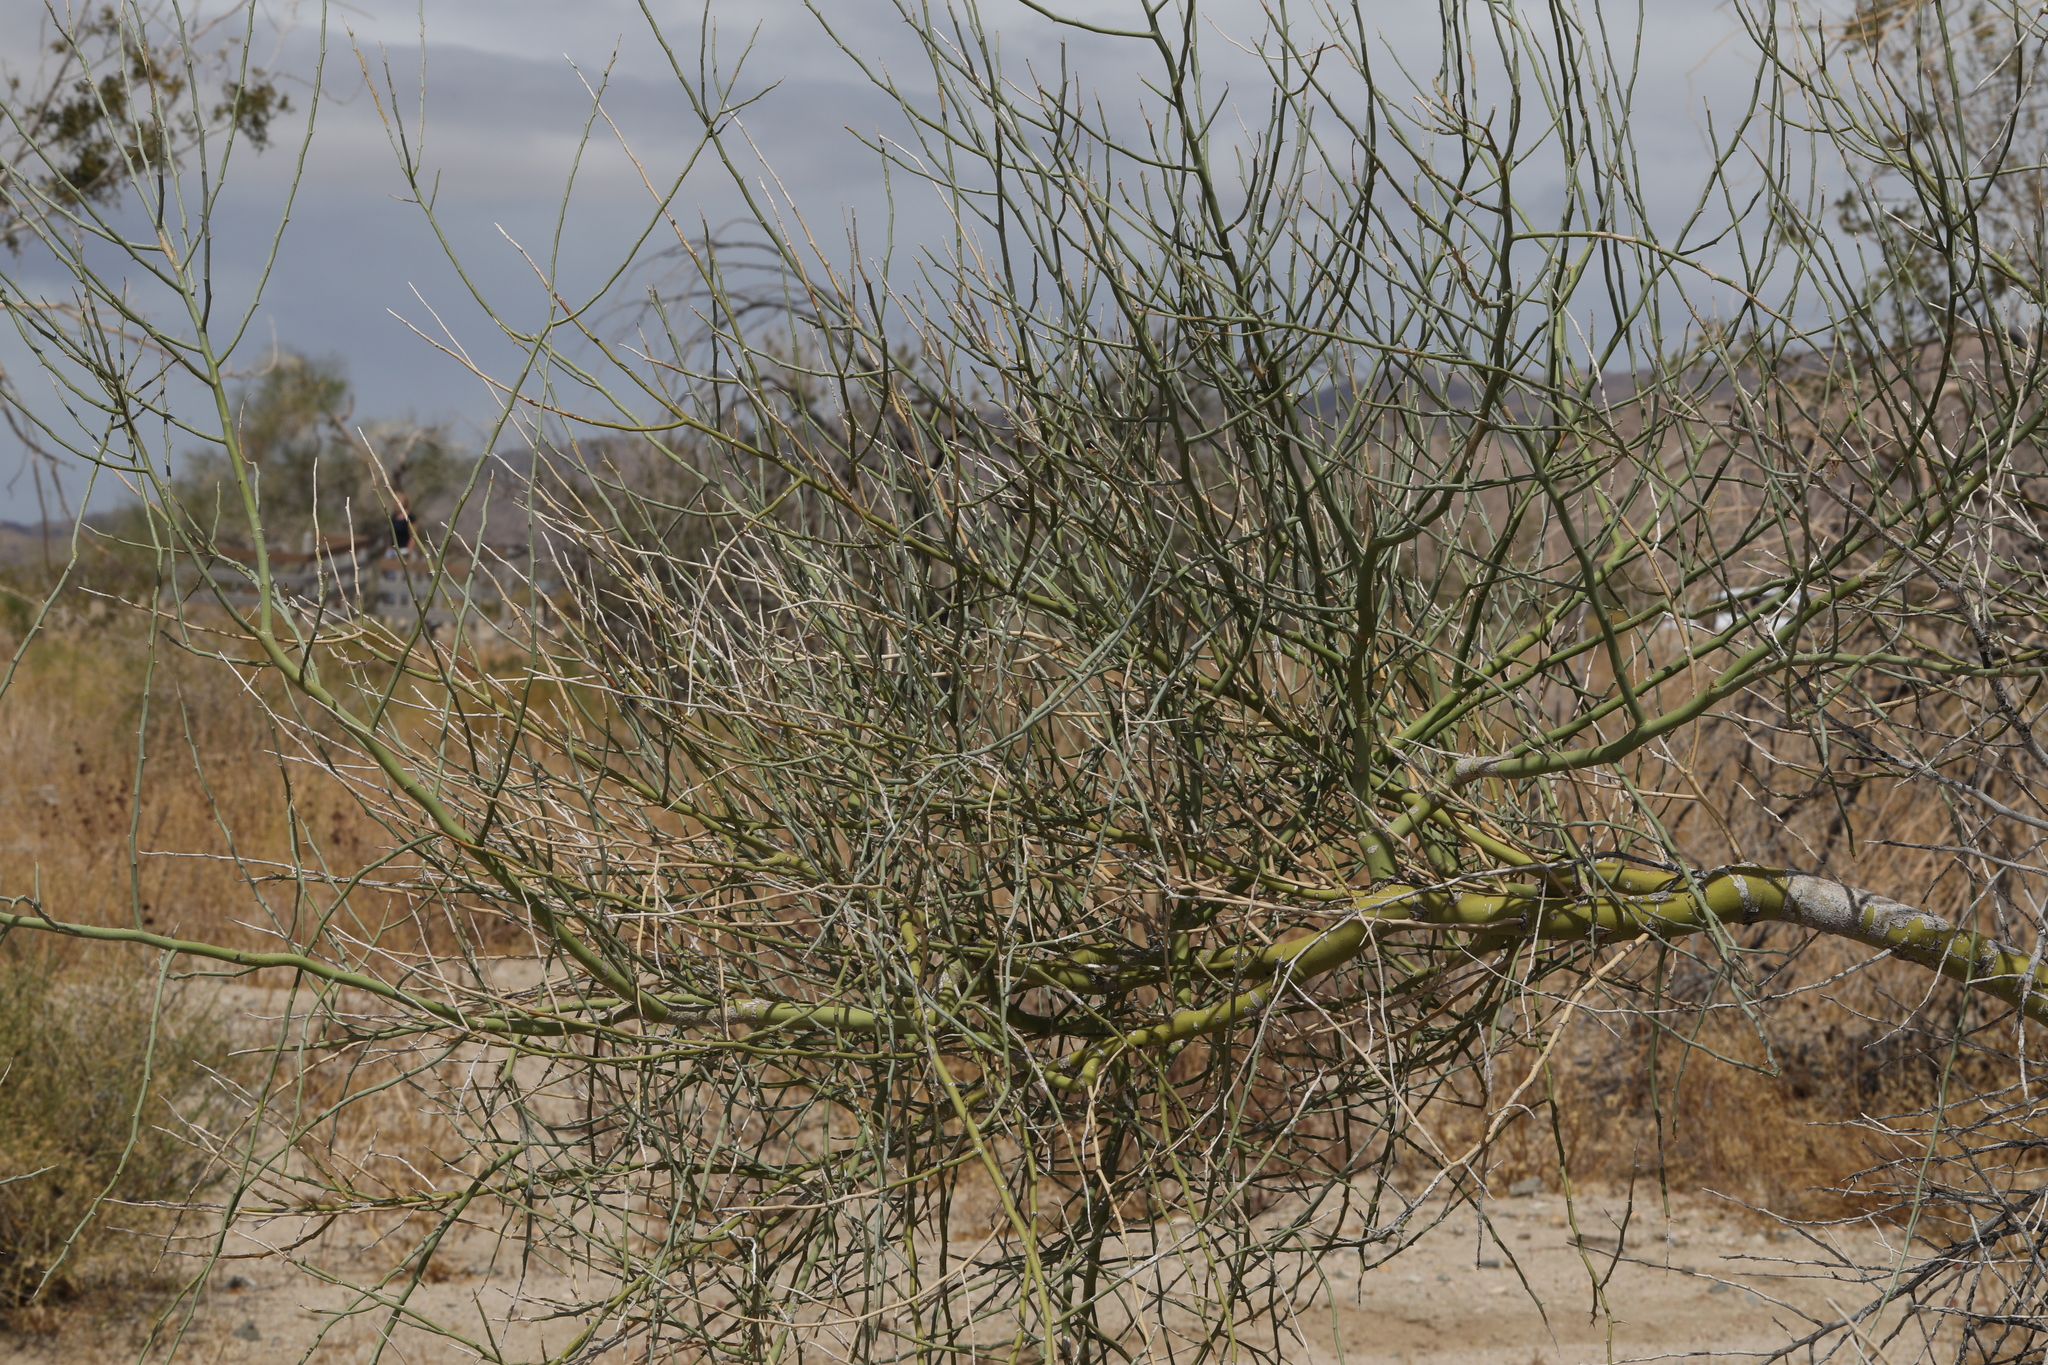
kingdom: Plantae
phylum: Tracheophyta
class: Magnoliopsida
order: Fabales
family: Fabaceae
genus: Parkinsonia
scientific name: Parkinsonia florida
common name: Blue paloverde
